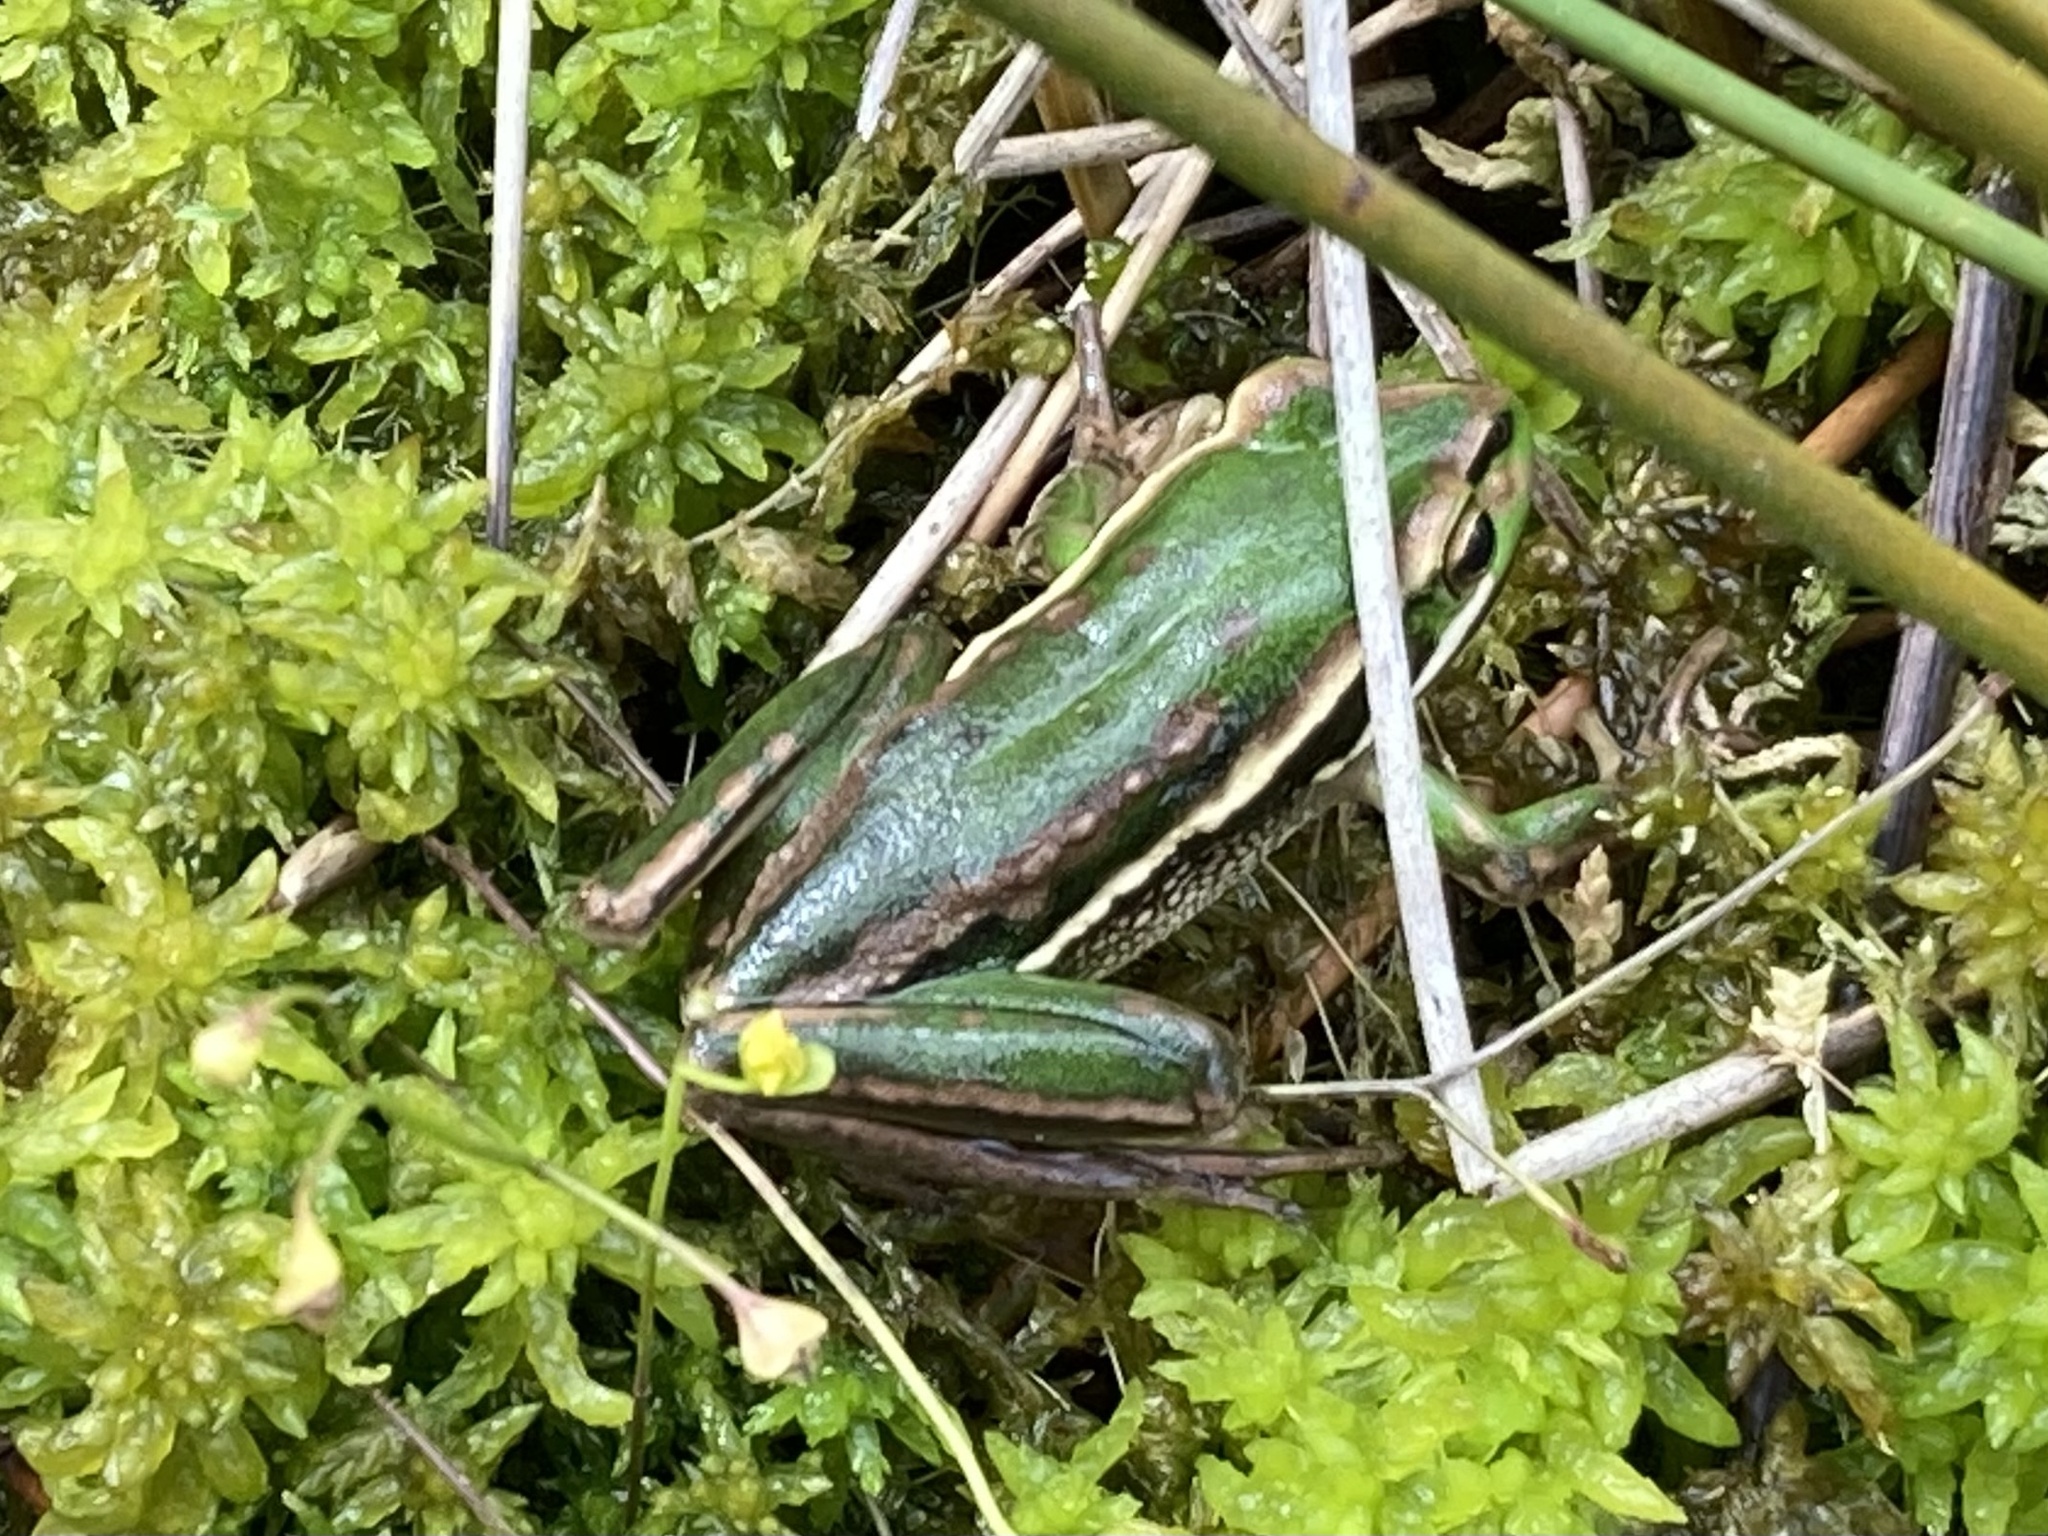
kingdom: Animalia
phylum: Chordata
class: Amphibia
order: Anura
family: Pelodryadidae
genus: Ranoidea
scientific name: Ranoidea aurea
